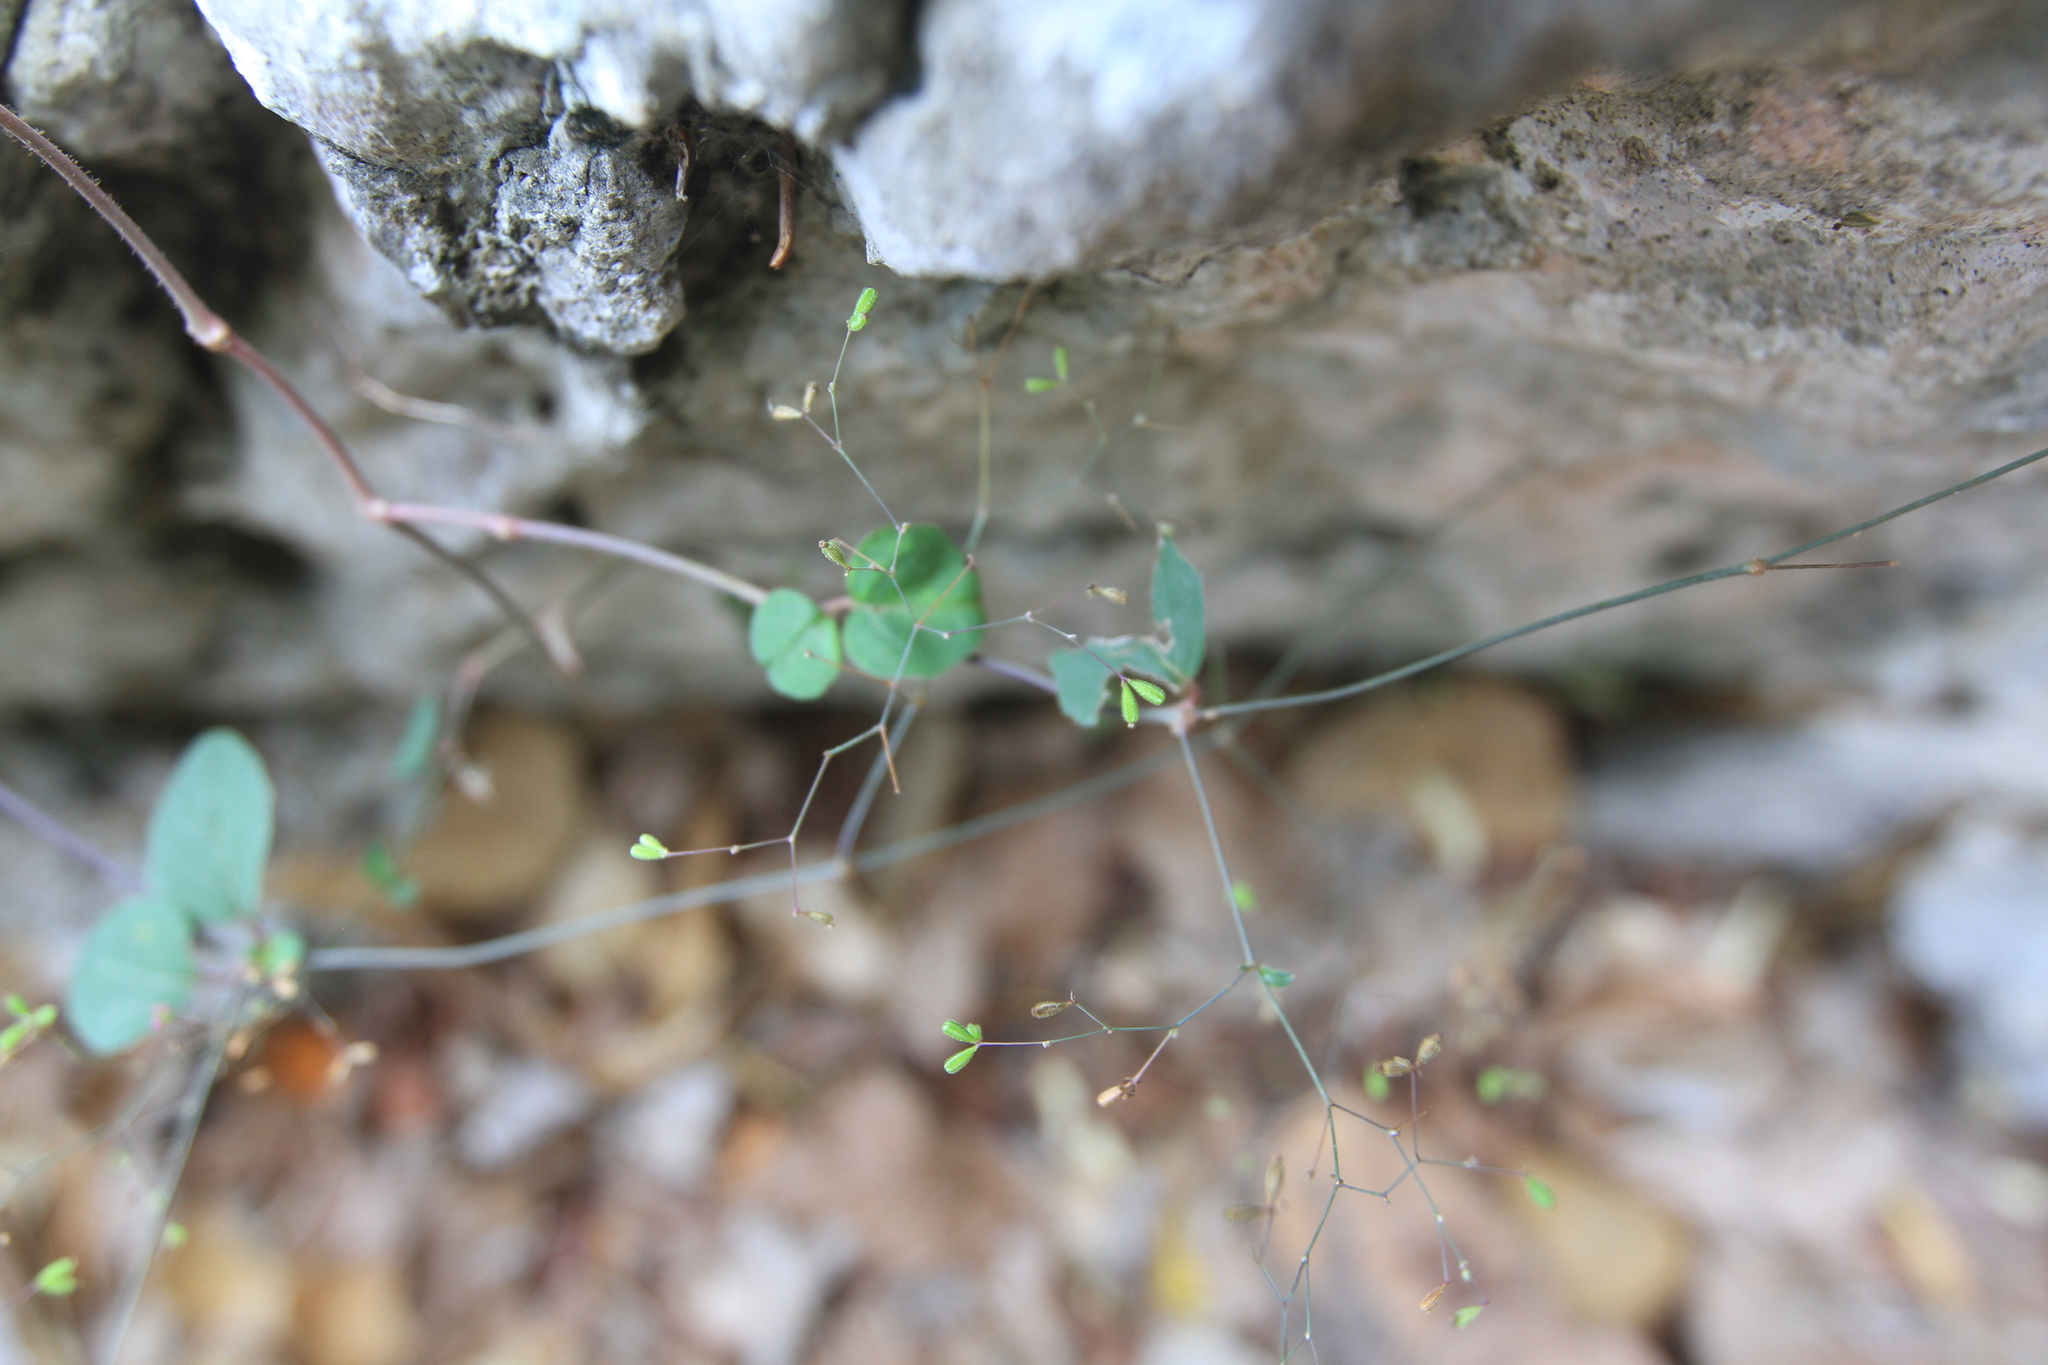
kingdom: Plantae
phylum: Tracheophyta
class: Magnoliopsida
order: Caryophyllales
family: Nyctaginaceae
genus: Boerhavia
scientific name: Boerhavia diffusa
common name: Red spiderling
